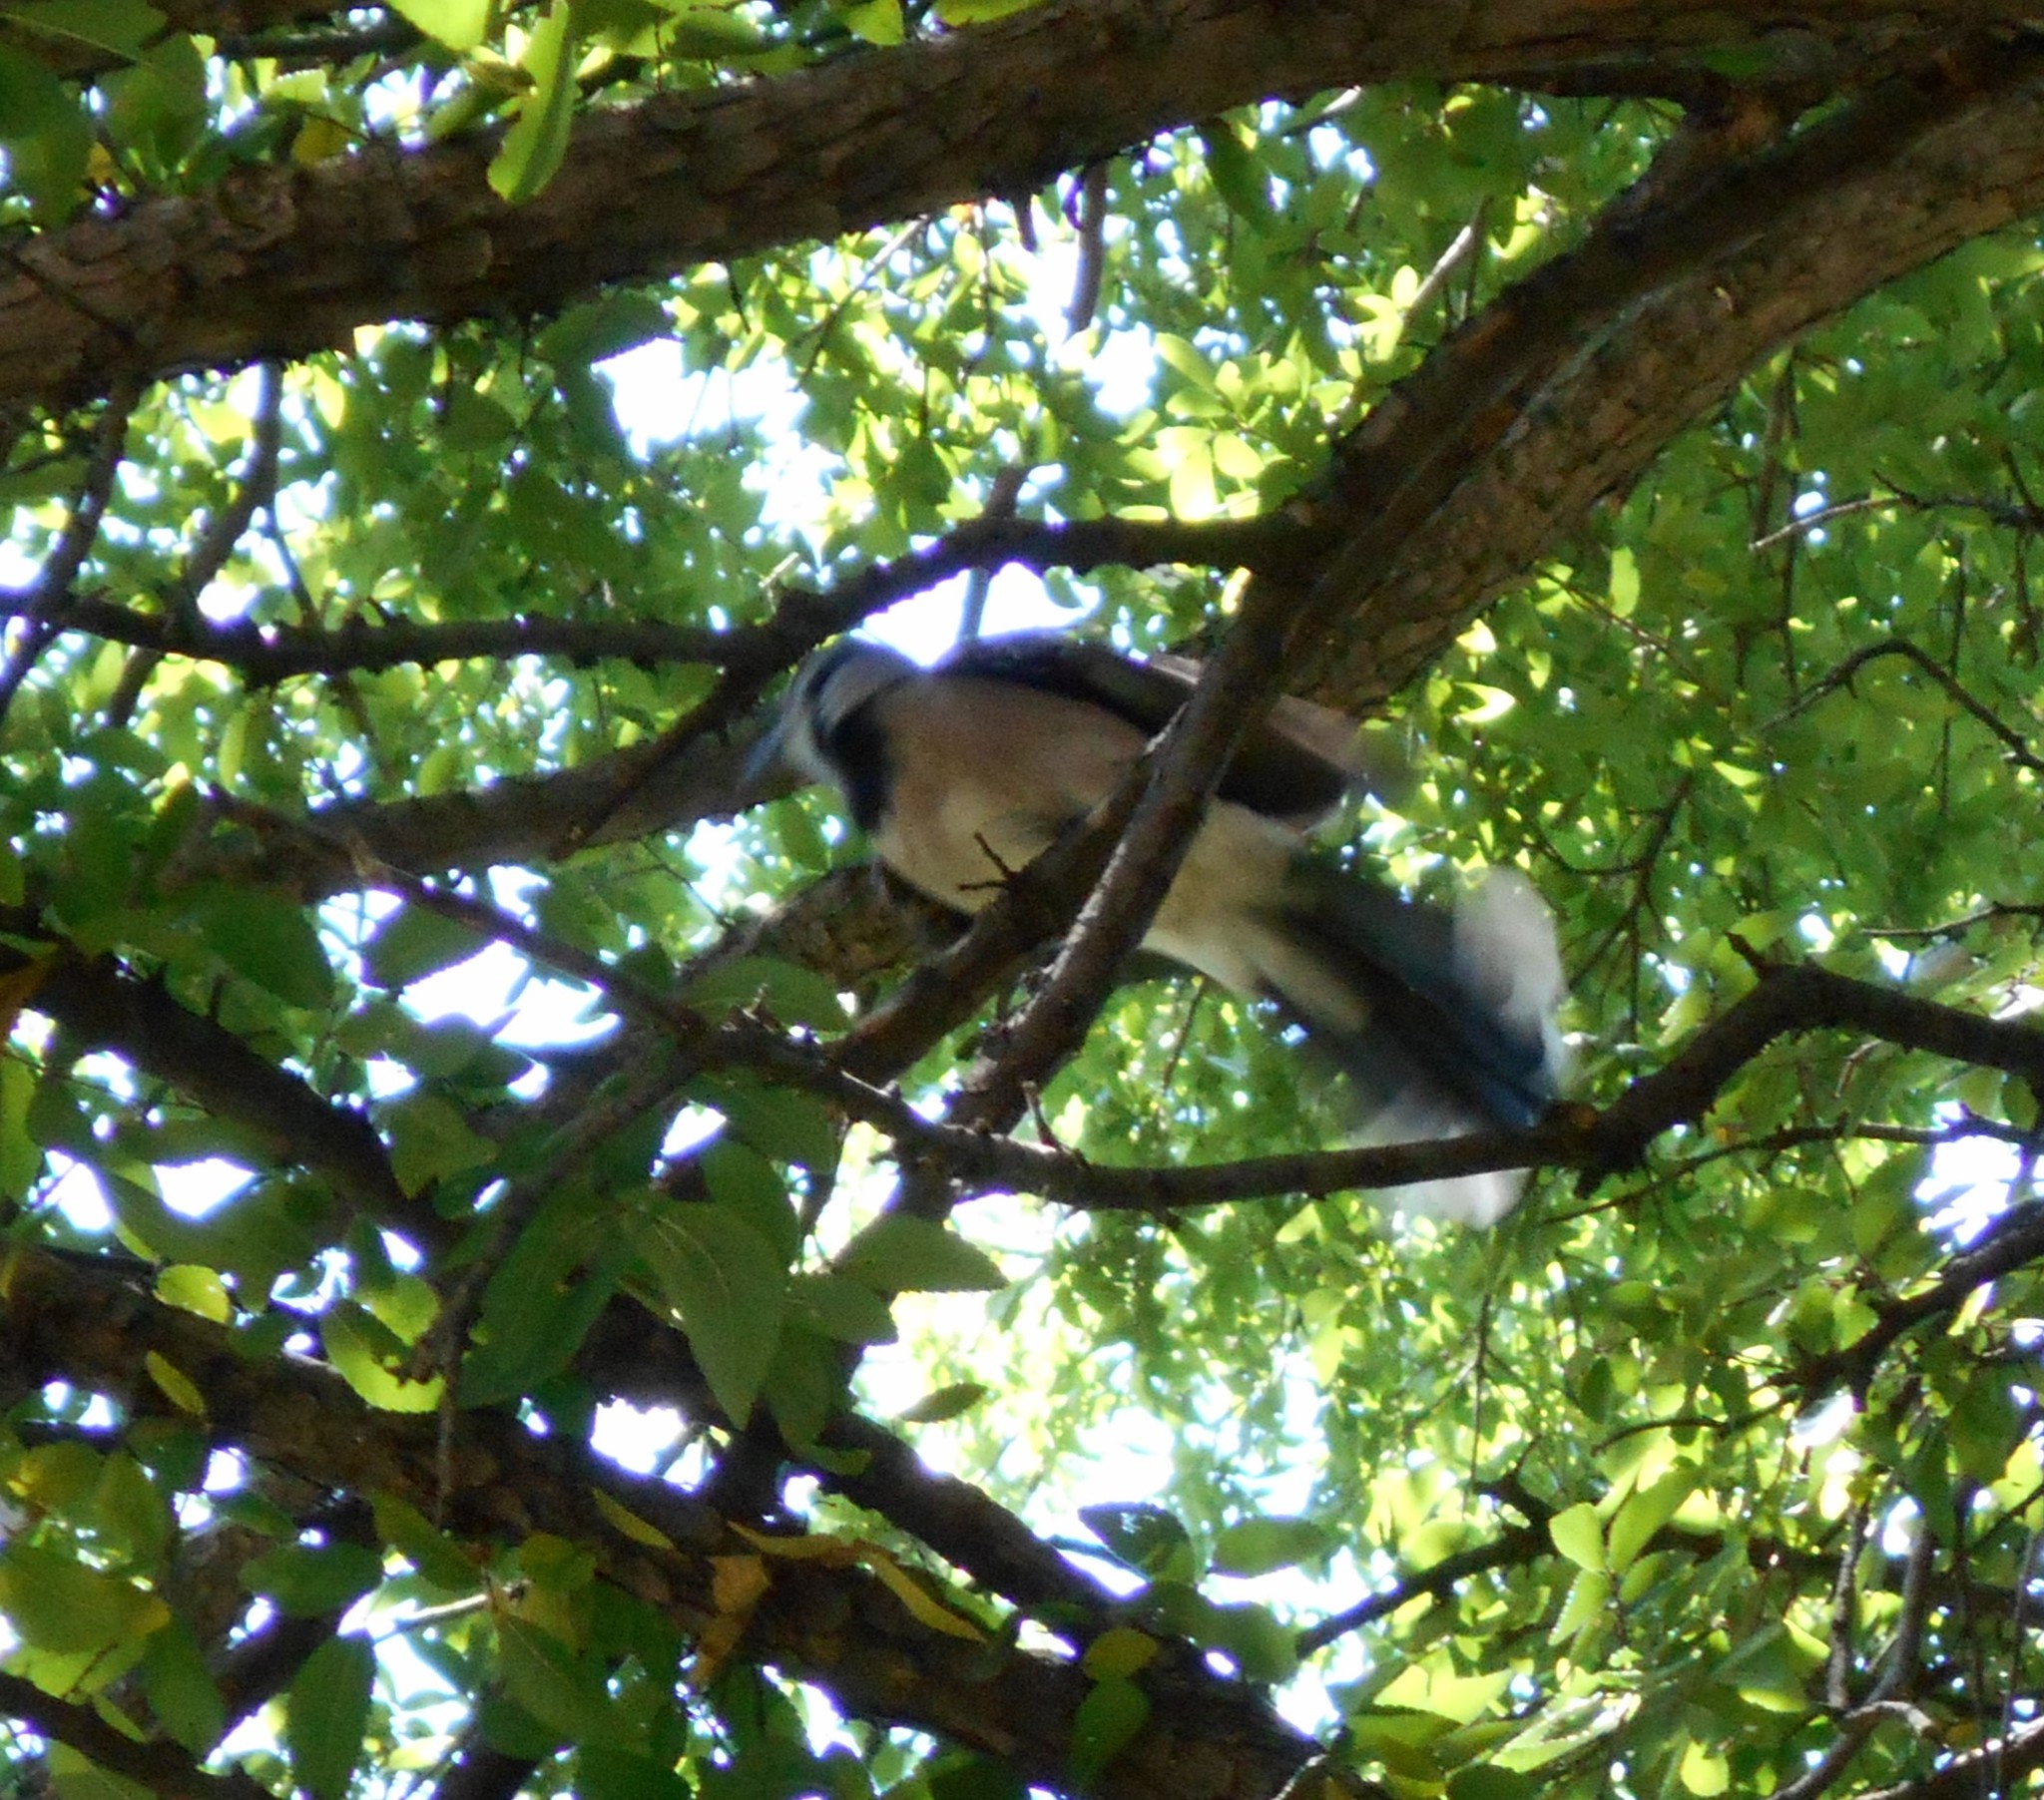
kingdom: Animalia
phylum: Chordata
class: Aves
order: Passeriformes
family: Corvidae
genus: Cyanocitta
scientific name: Cyanocitta cristata
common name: Blue jay
